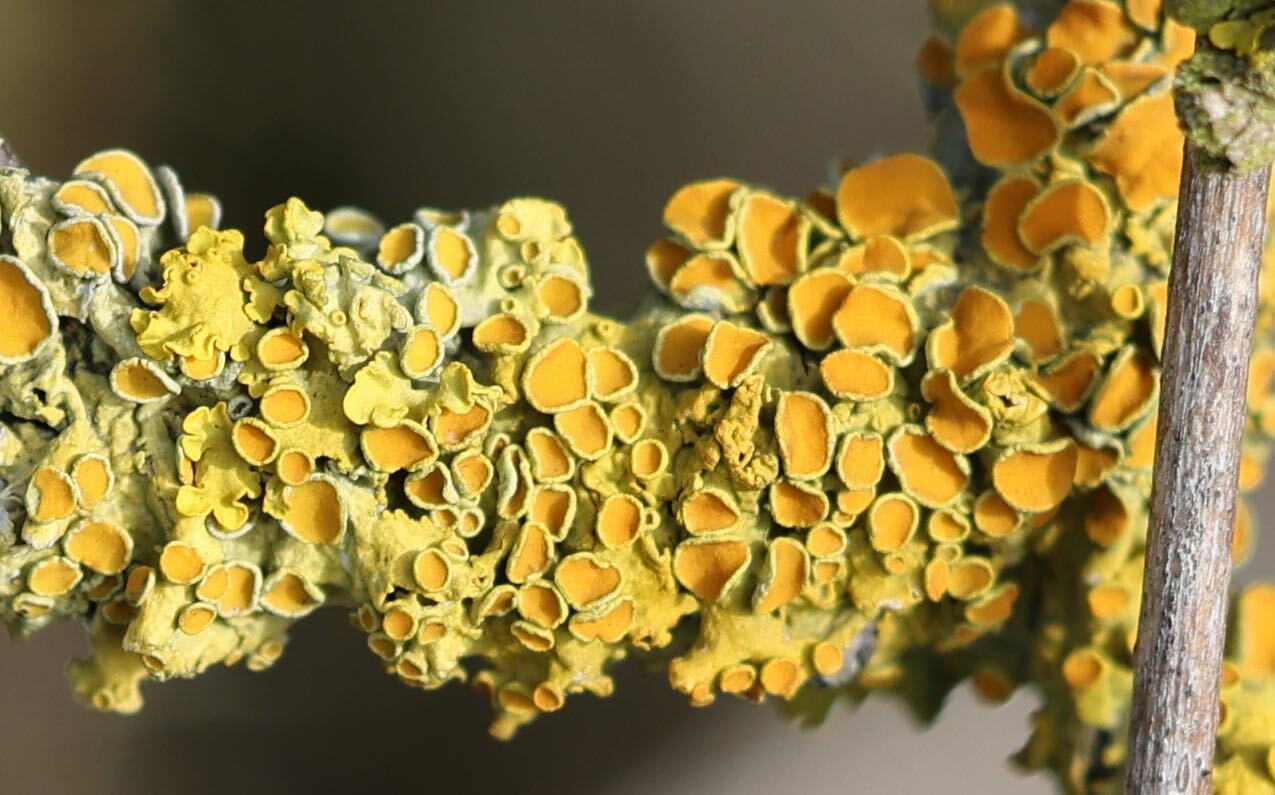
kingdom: Fungi
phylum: Ascomycota
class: Lecanoromycetes
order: Teloschistales
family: Teloschistaceae
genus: Xanthoria
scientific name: Xanthoria parietina
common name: Common orange lichen
